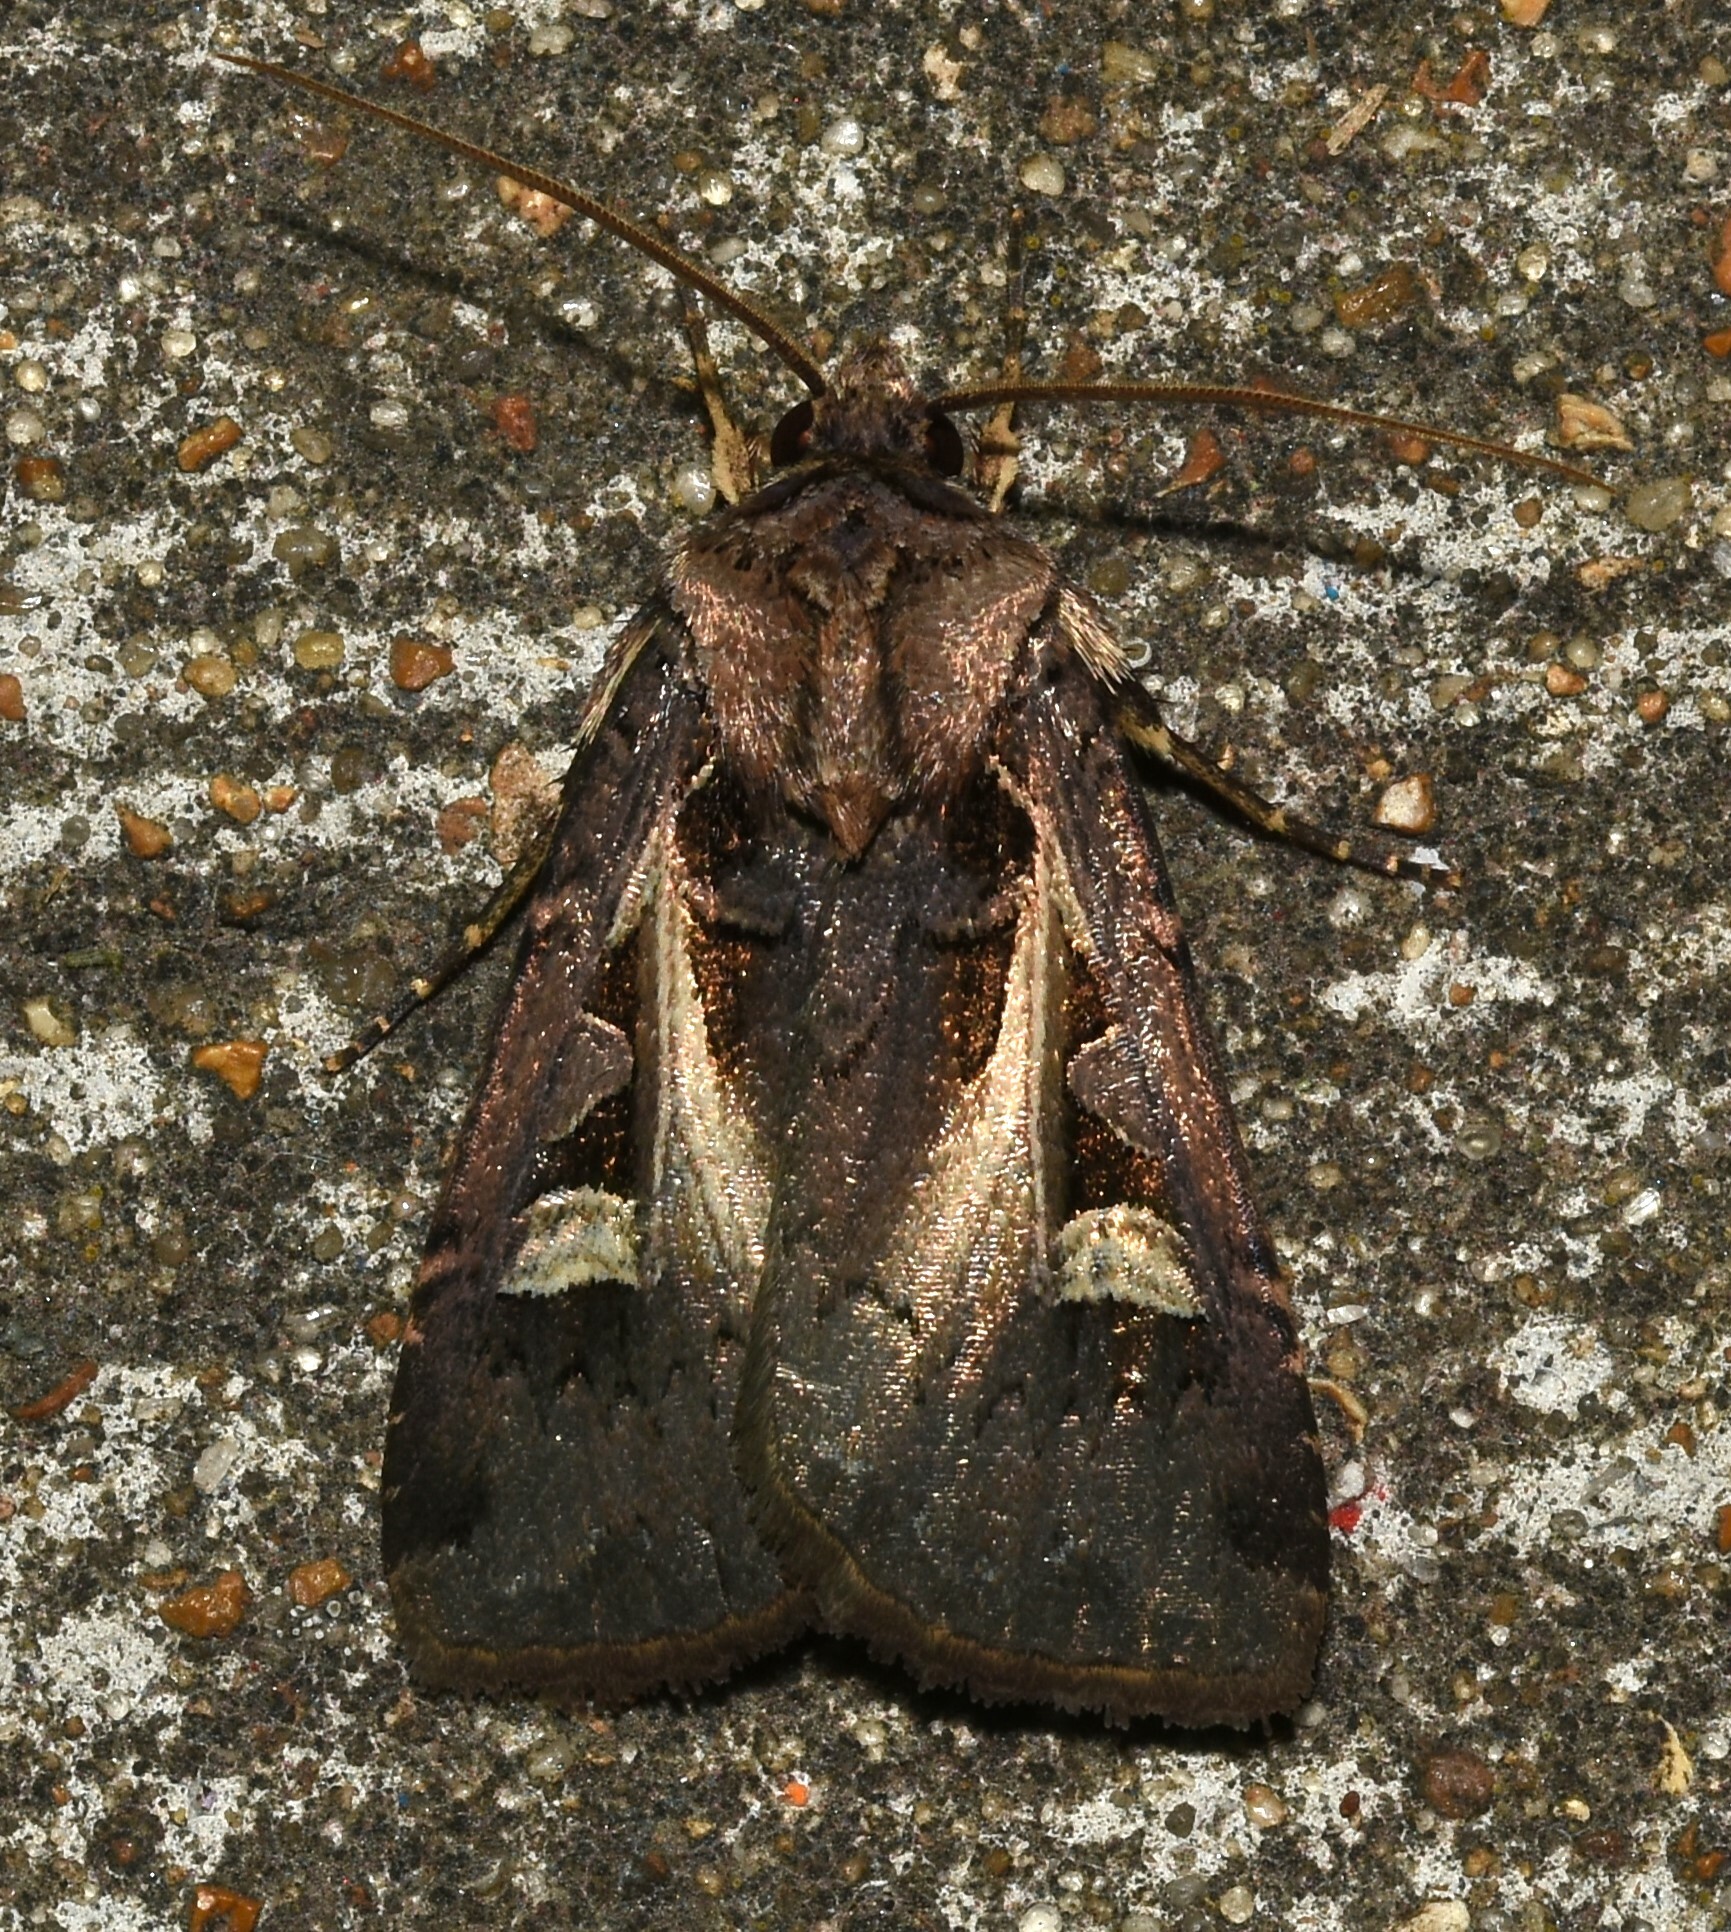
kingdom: Animalia
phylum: Arthropoda
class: Insecta
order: Lepidoptera
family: Noctuidae
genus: Feltia
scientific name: Feltia herilis
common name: Master's dart
